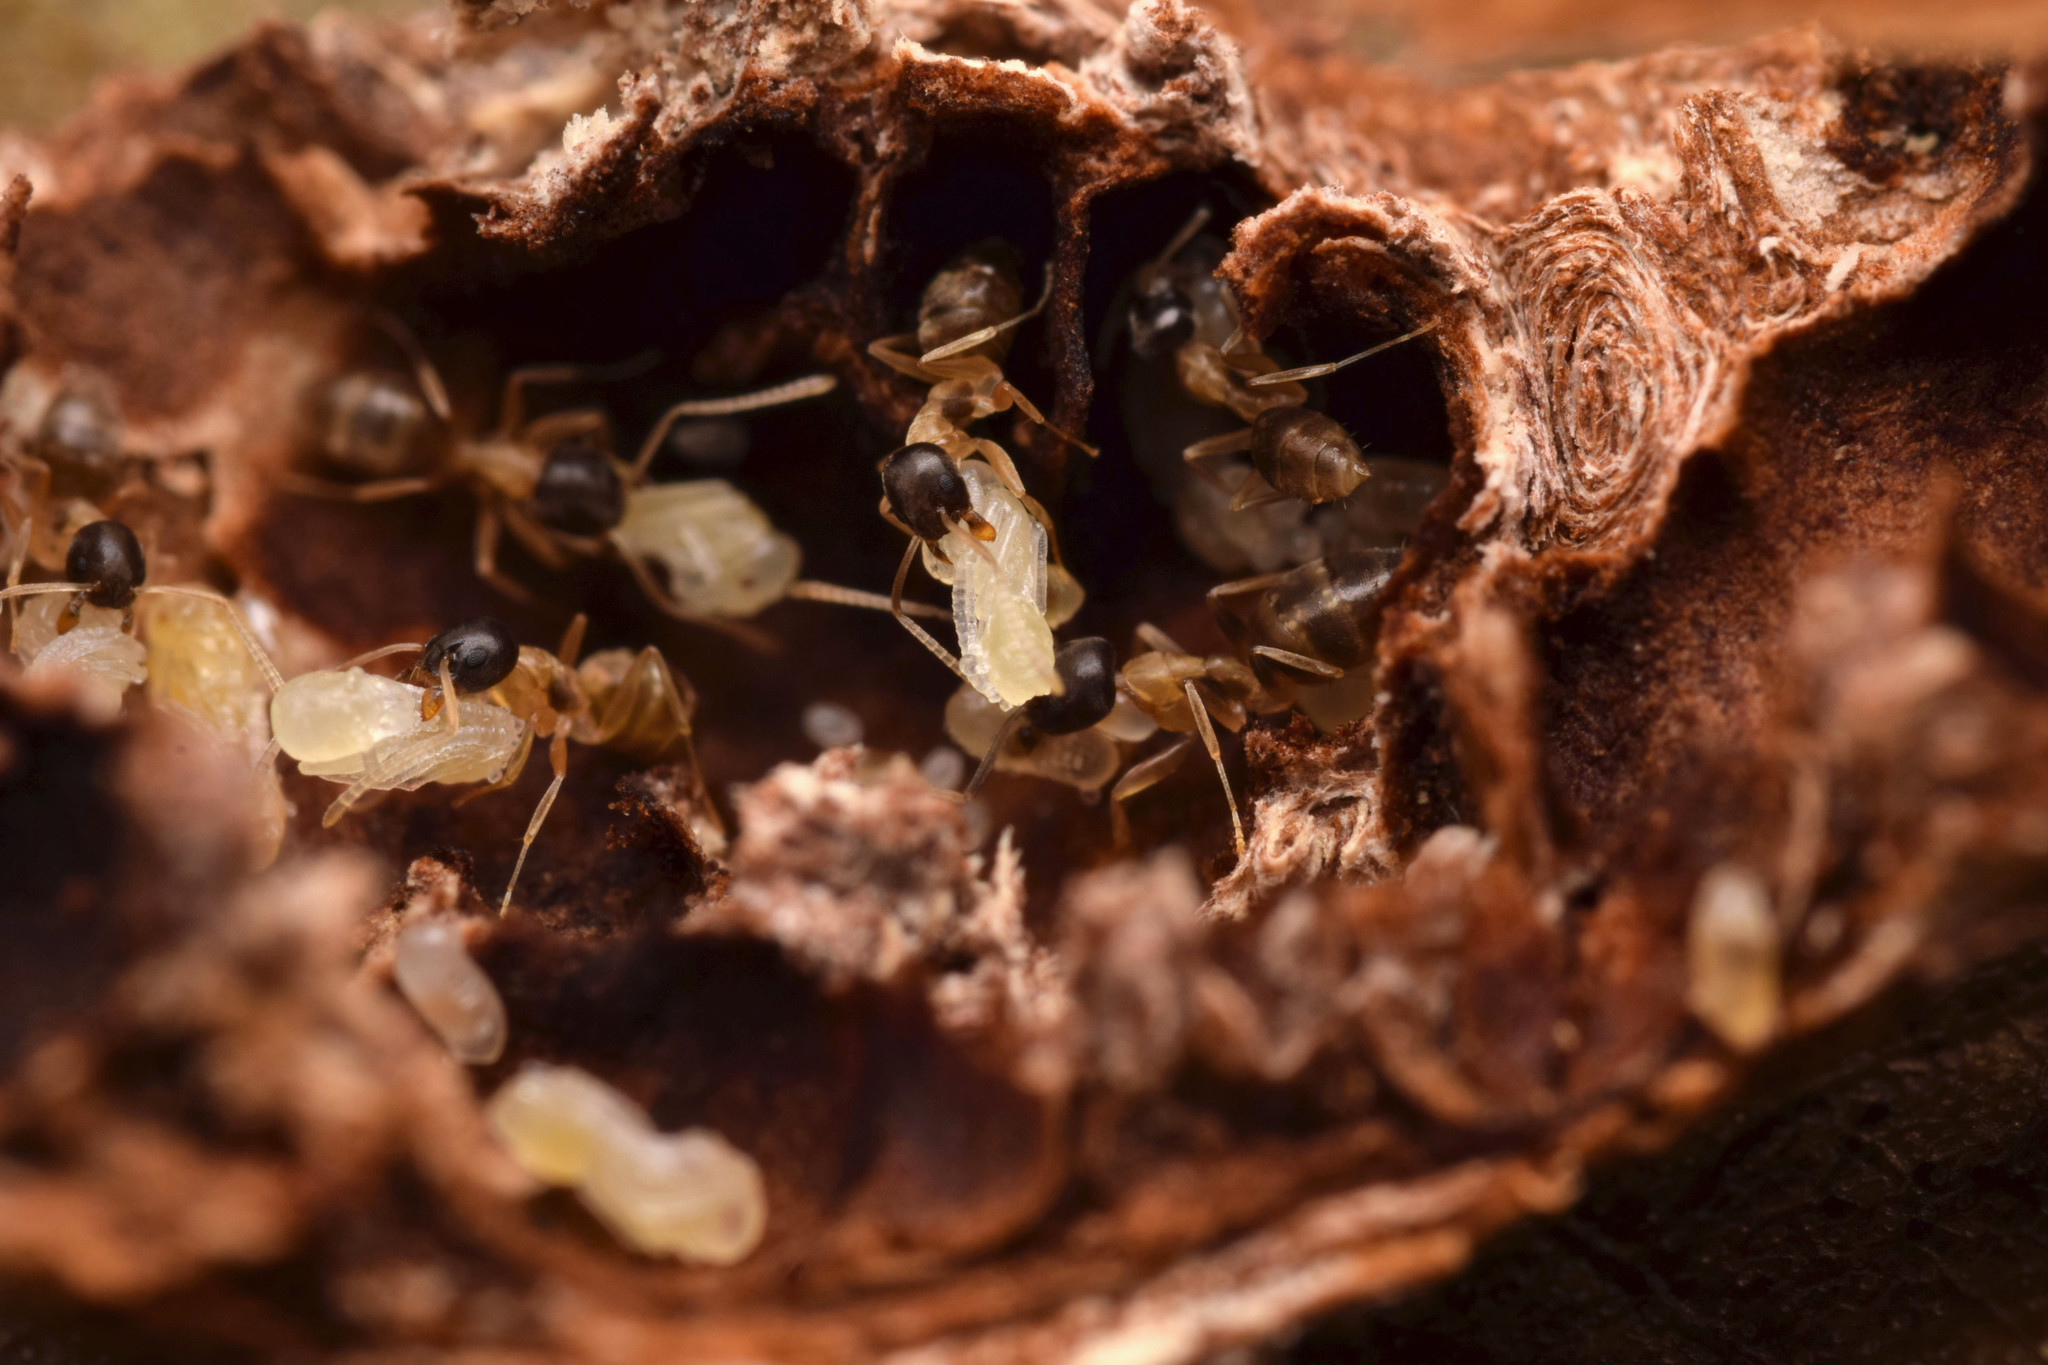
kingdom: Animalia
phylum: Arthropoda
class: Insecta
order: Hymenoptera
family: Formicidae
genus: Tapinoma
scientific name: Tapinoma atriceps
